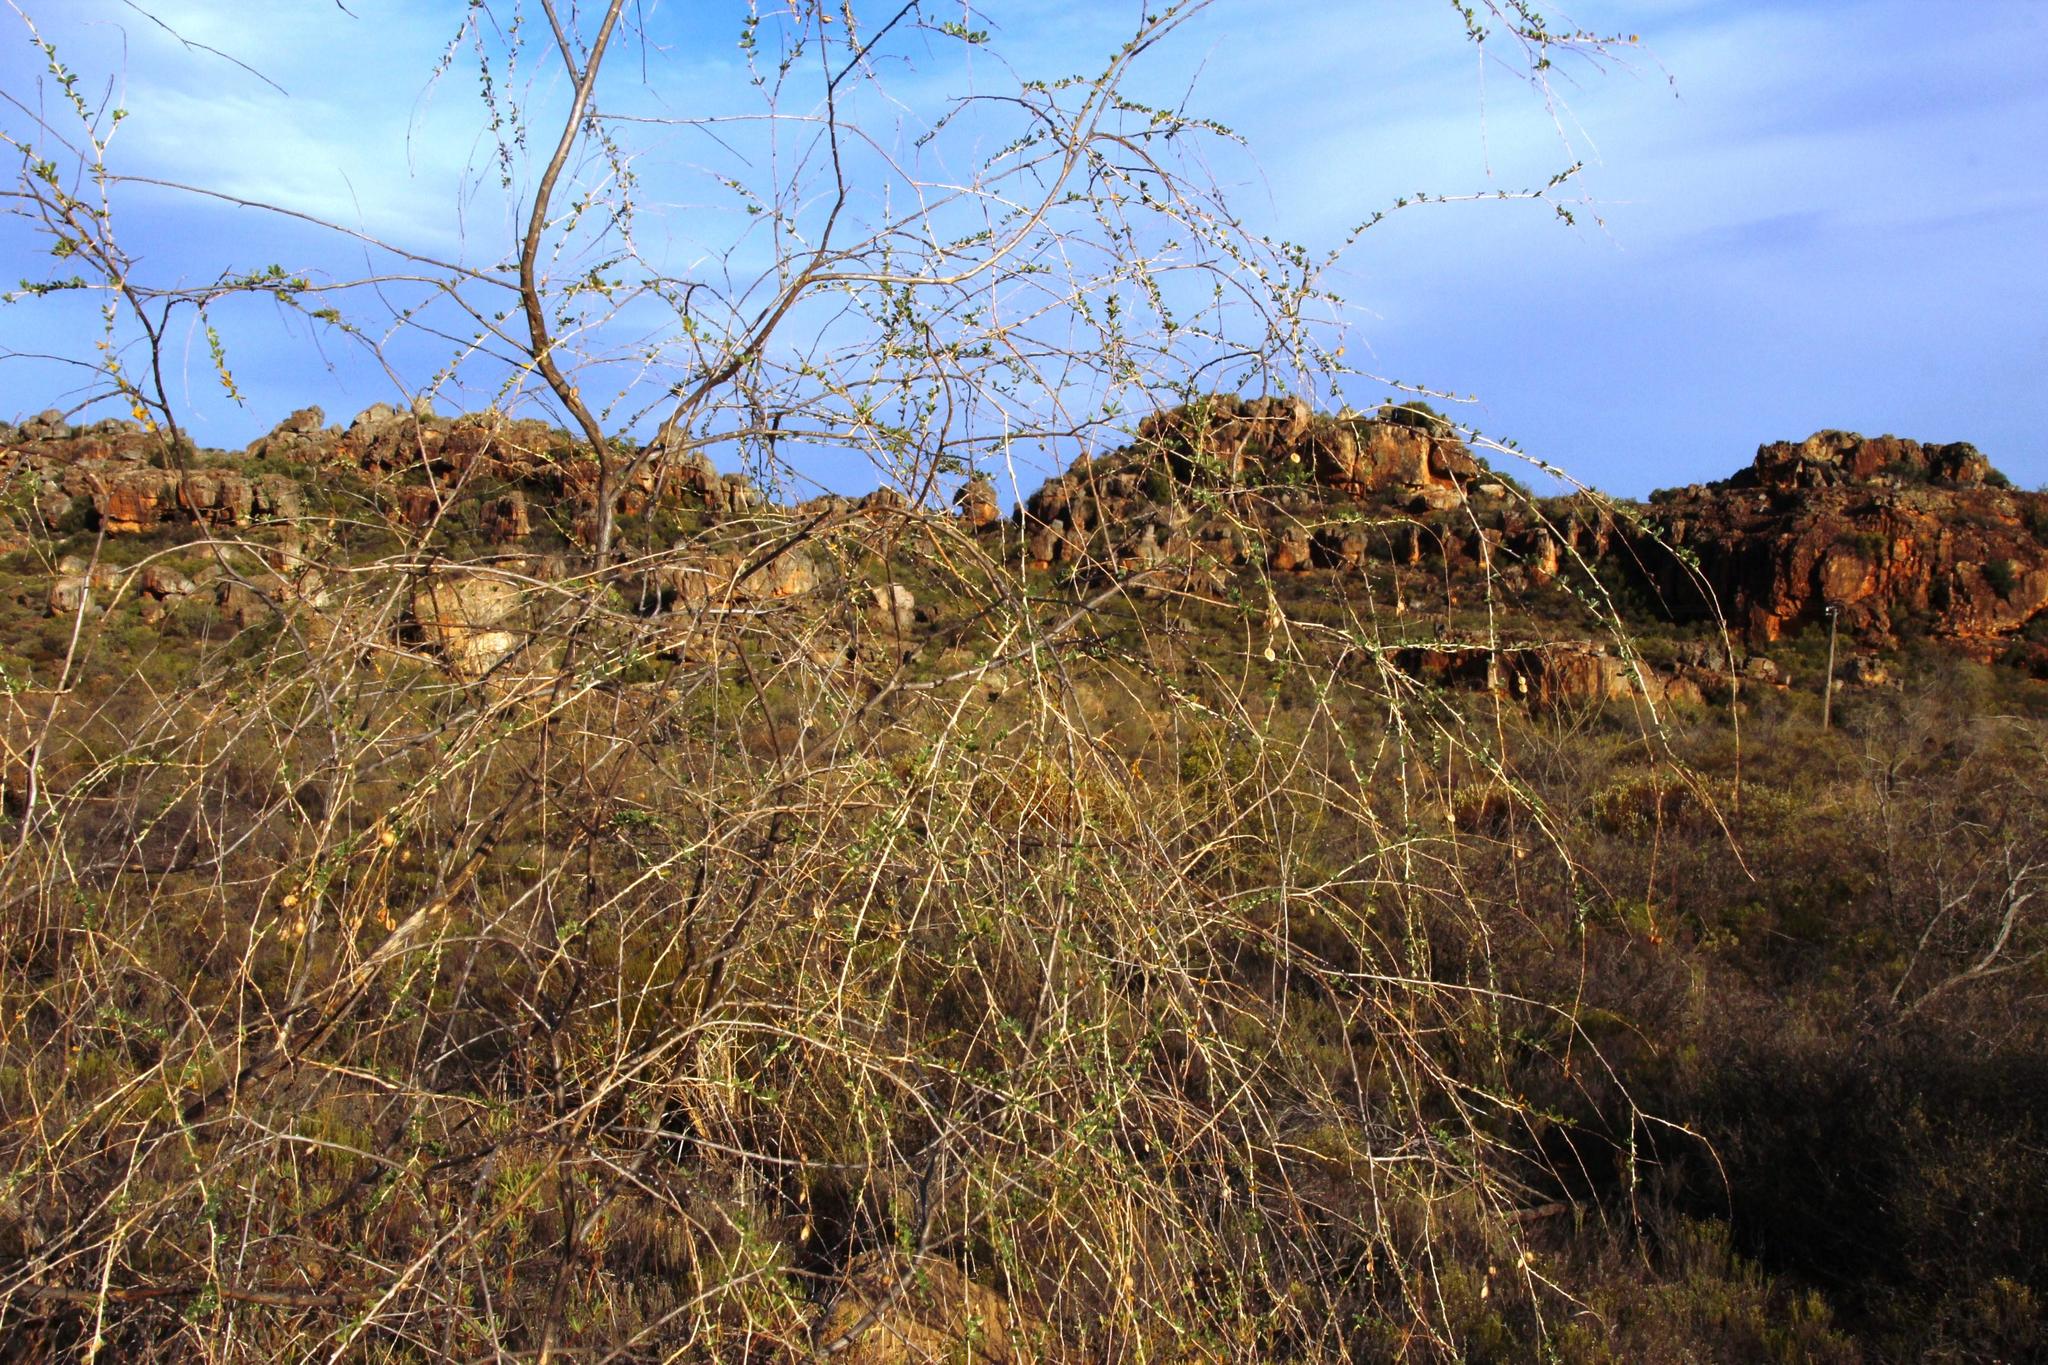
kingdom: Plantae
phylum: Tracheophyta
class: Magnoliopsida
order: Fabales
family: Fabaceae
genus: Wiborgia
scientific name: Wiborgia obcordata
